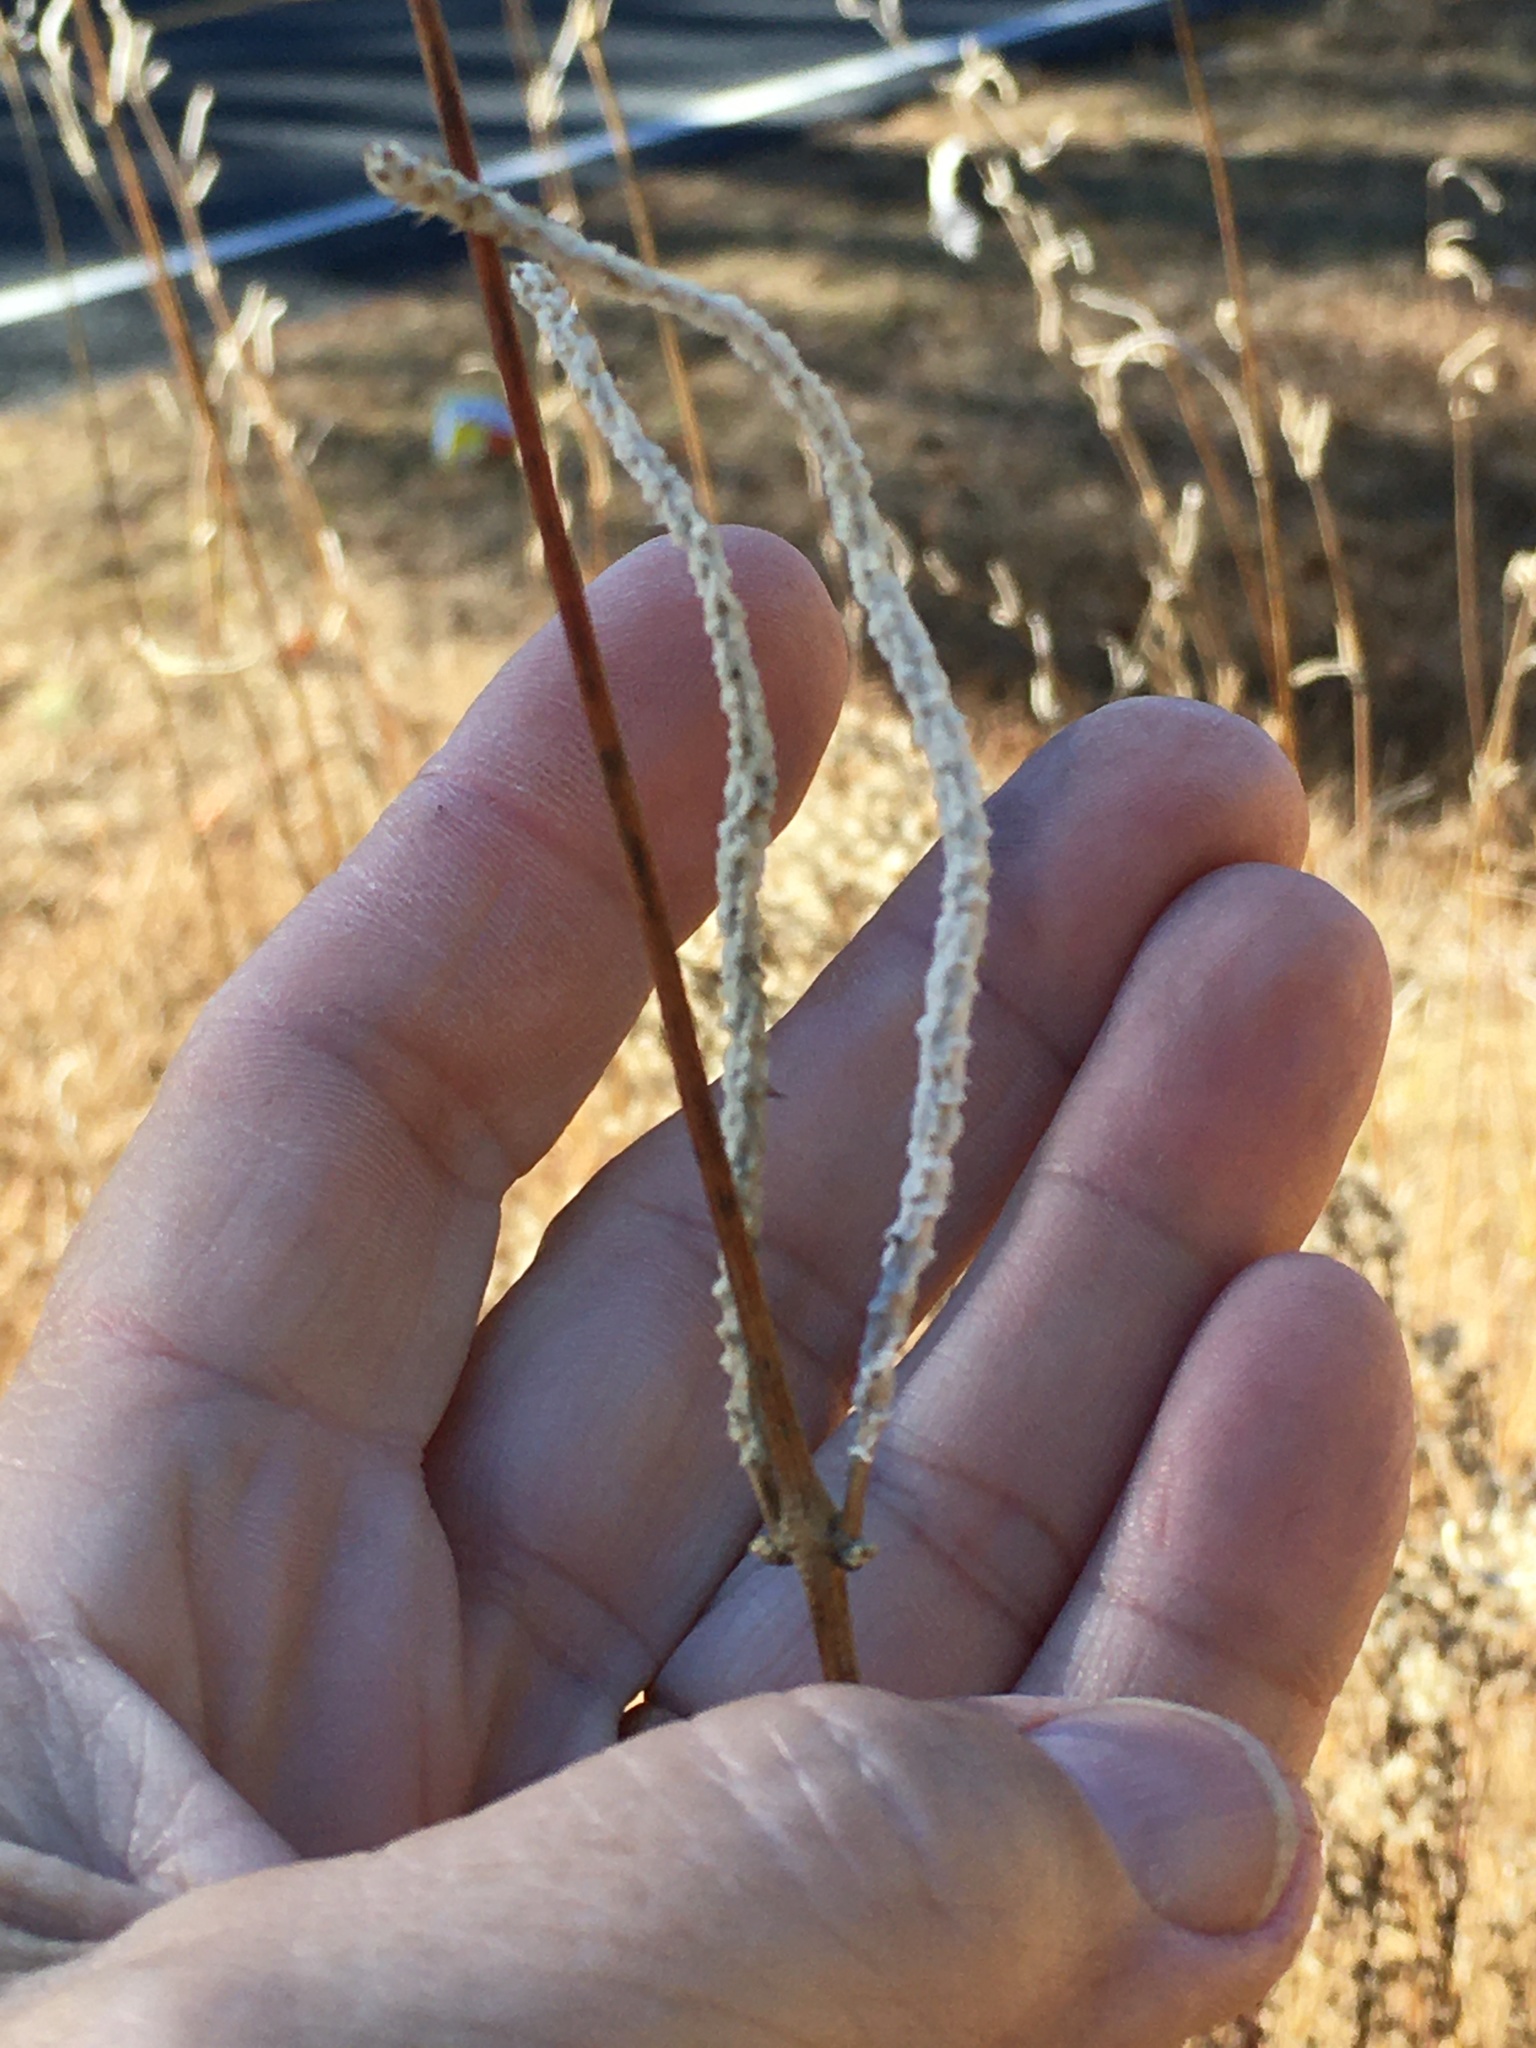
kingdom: Plantae
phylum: Tracheophyta
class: Magnoliopsida
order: Caryophyllales
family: Amaranthaceae
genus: Froelichia
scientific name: Froelichia floridana
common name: Florida snake-cotton
